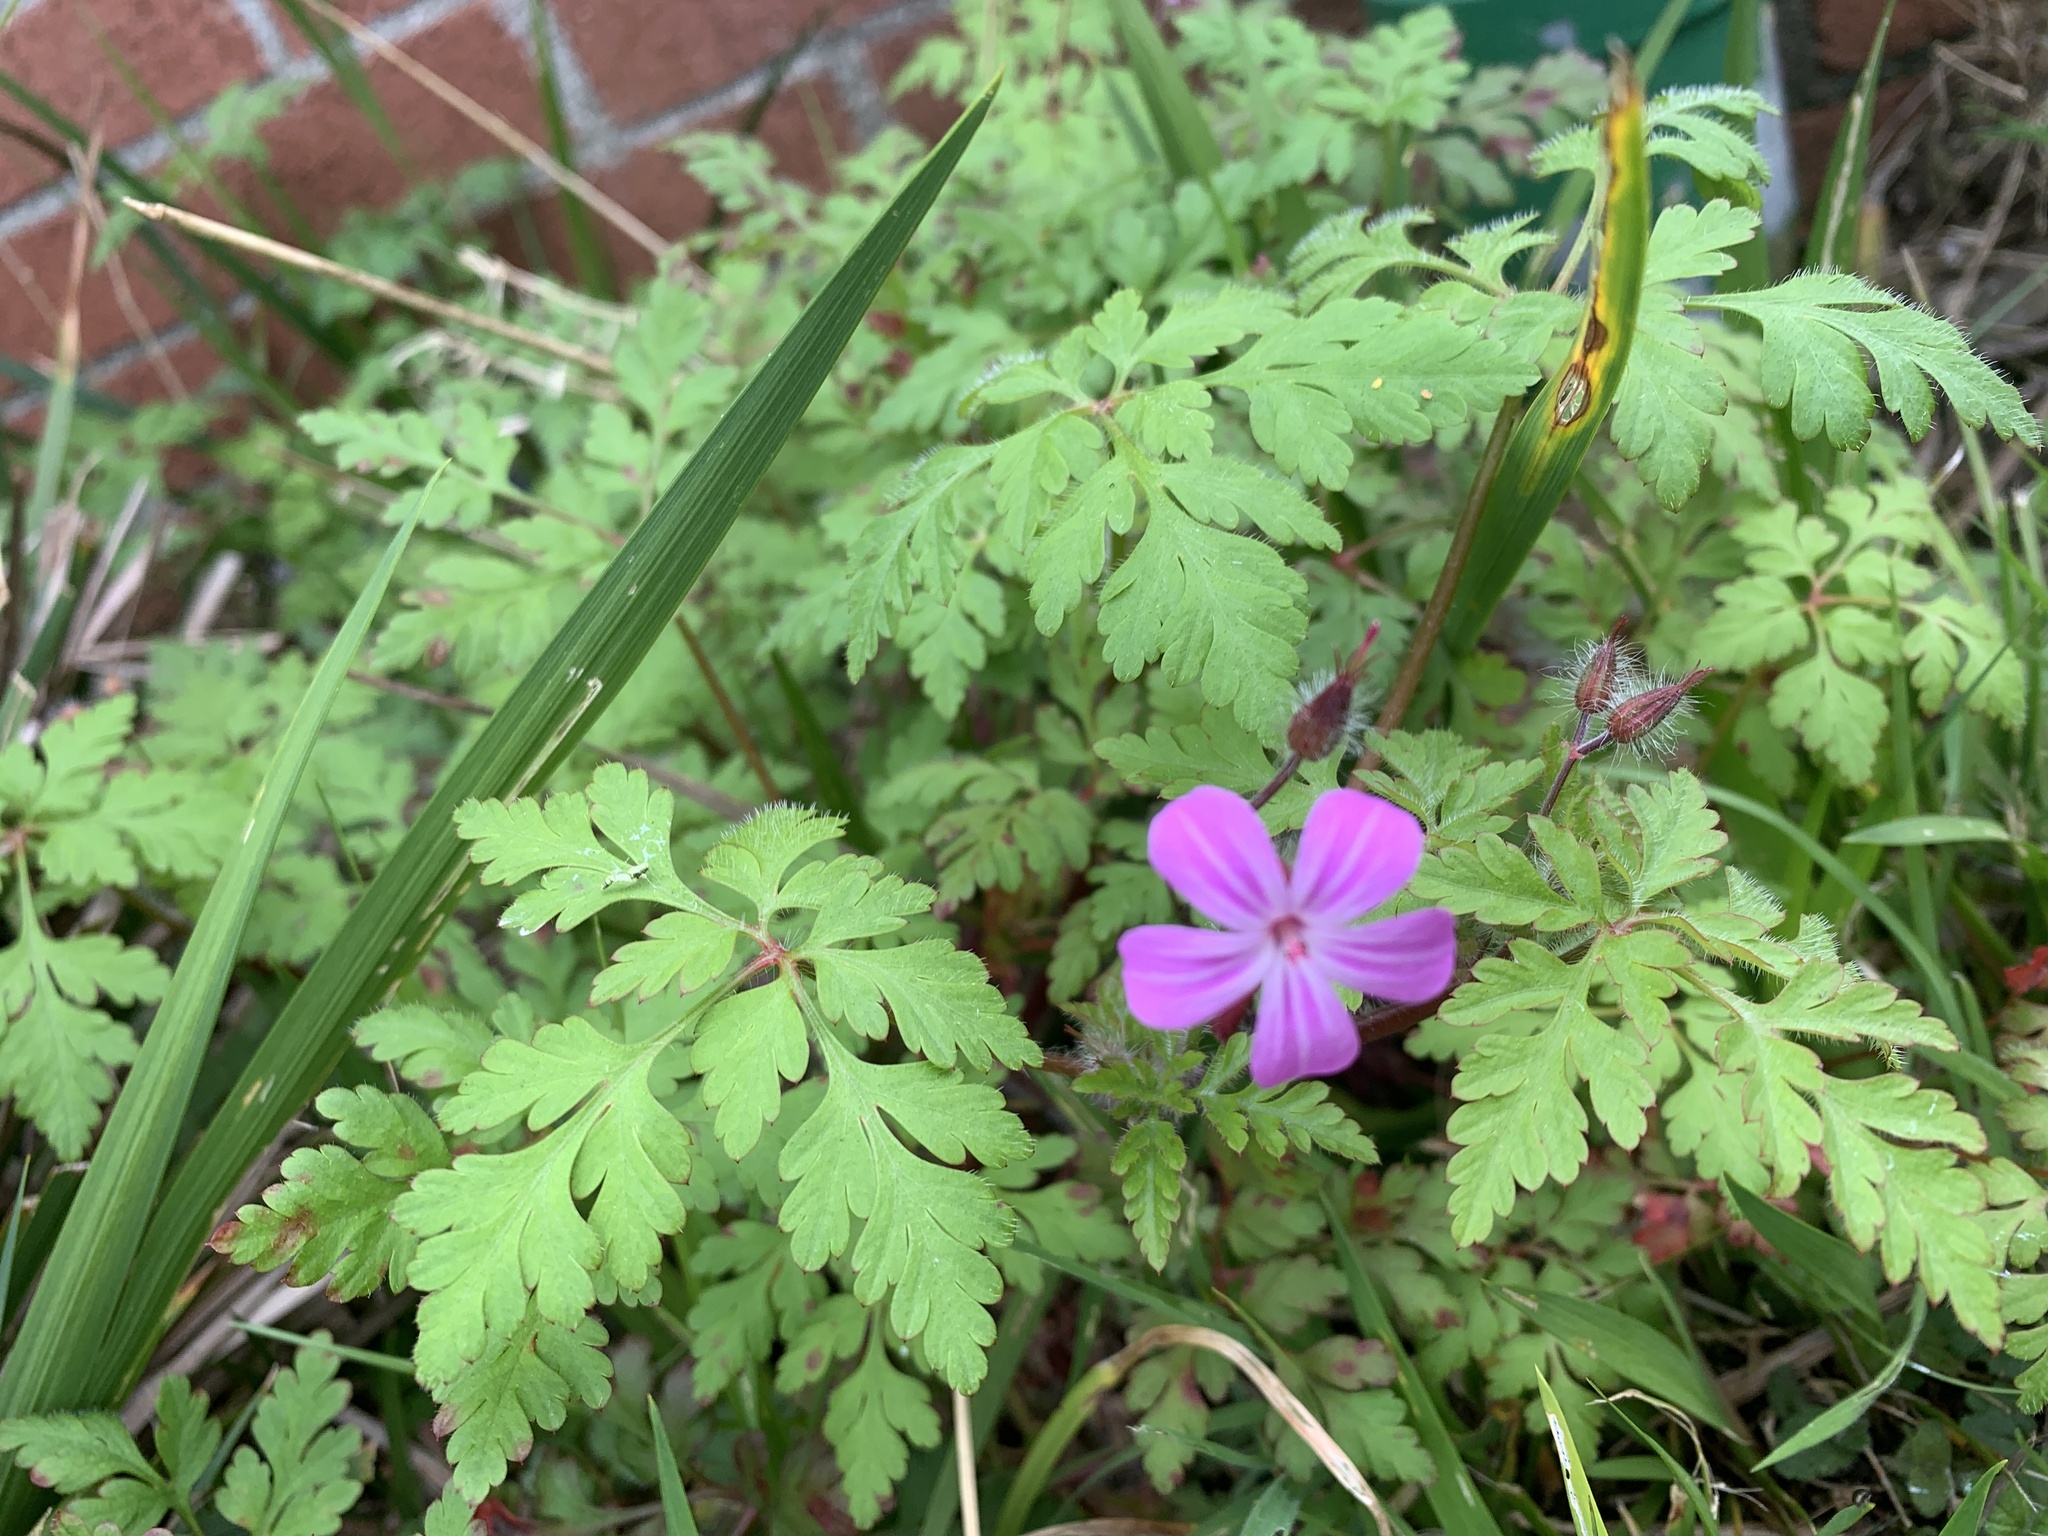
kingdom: Plantae
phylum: Tracheophyta
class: Magnoliopsida
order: Geraniales
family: Geraniaceae
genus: Geranium
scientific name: Geranium robertianum
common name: Herb-robert
